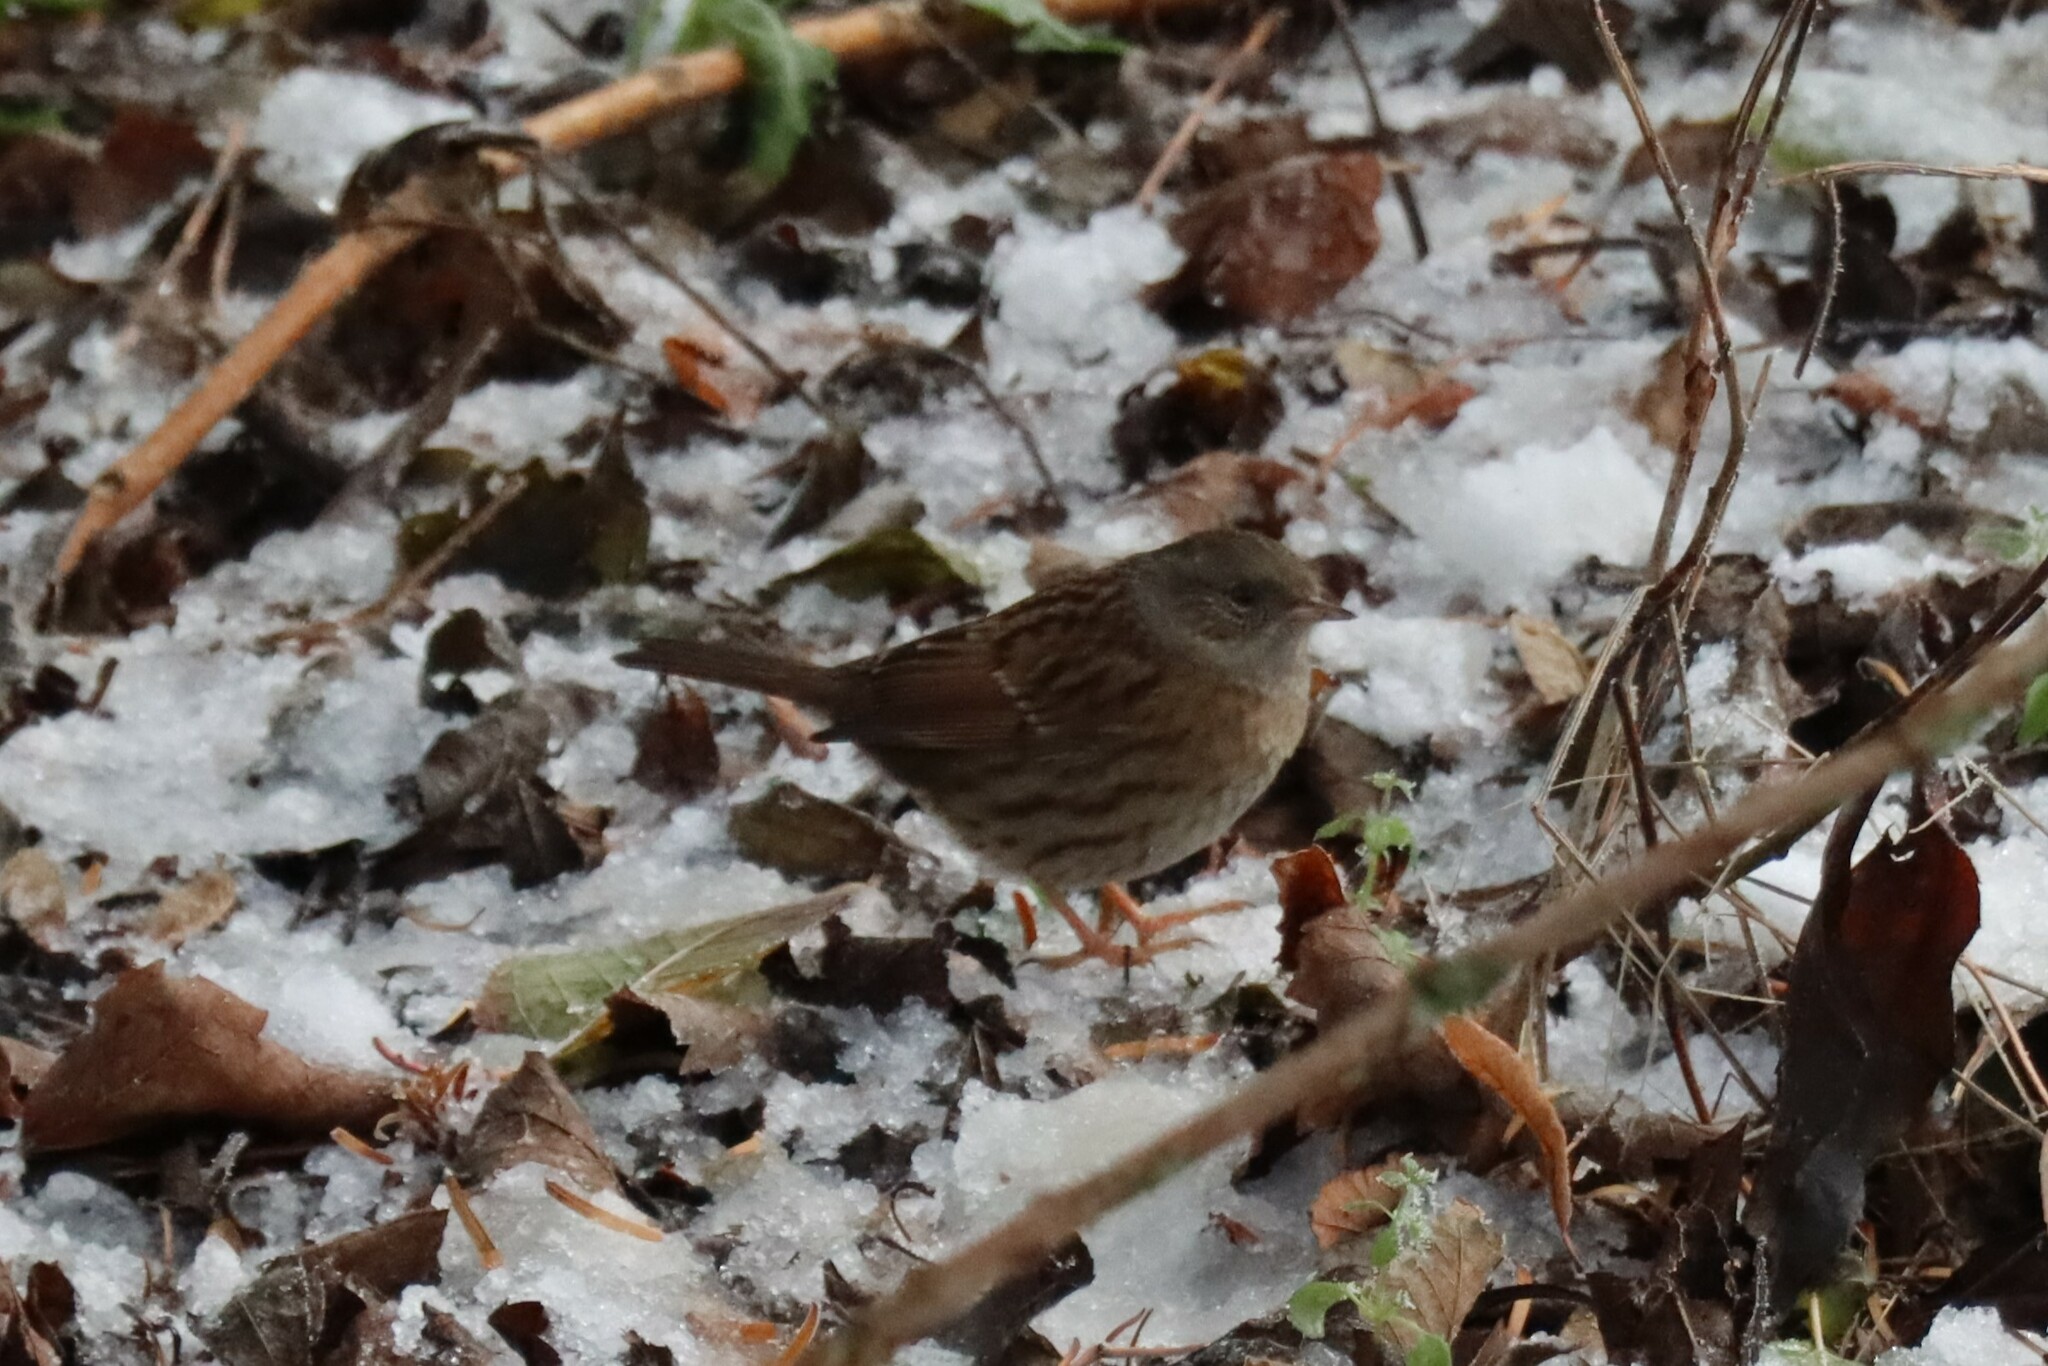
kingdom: Animalia
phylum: Chordata
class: Aves
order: Passeriformes
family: Prunellidae
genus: Prunella
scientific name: Prunella modularis
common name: Dunnock
